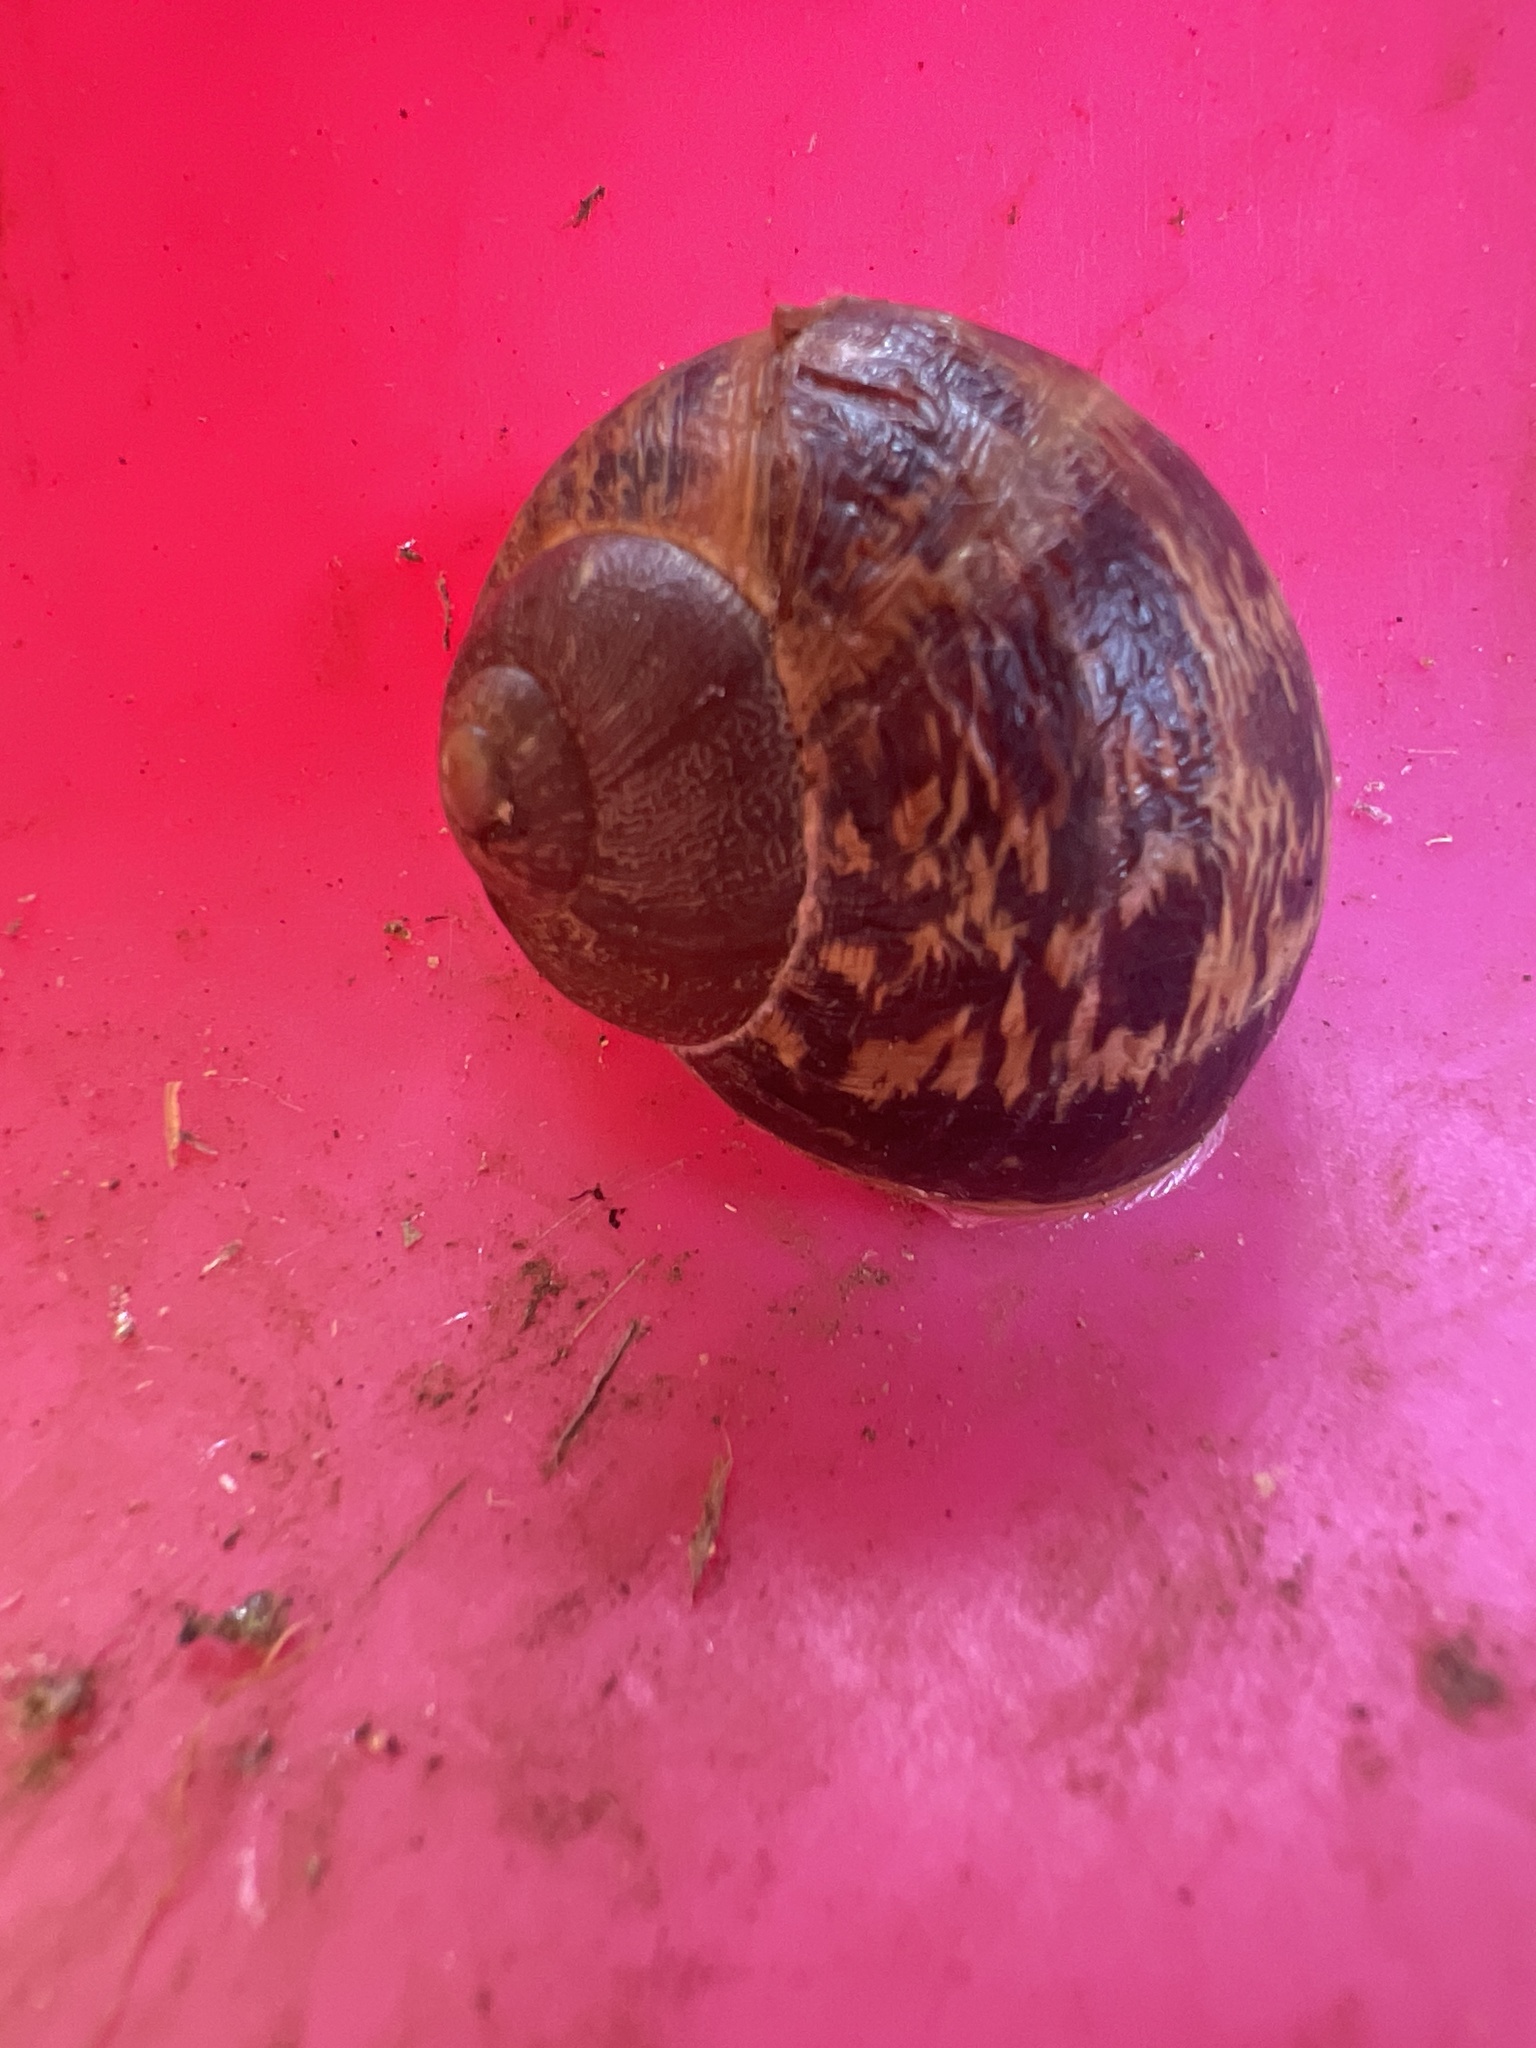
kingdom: Animalia
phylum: Mollusca
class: Gastropoda
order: Stylommatophora
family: Helicidae
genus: Cornu
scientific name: Cornu aspersum
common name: Brown garden snail
